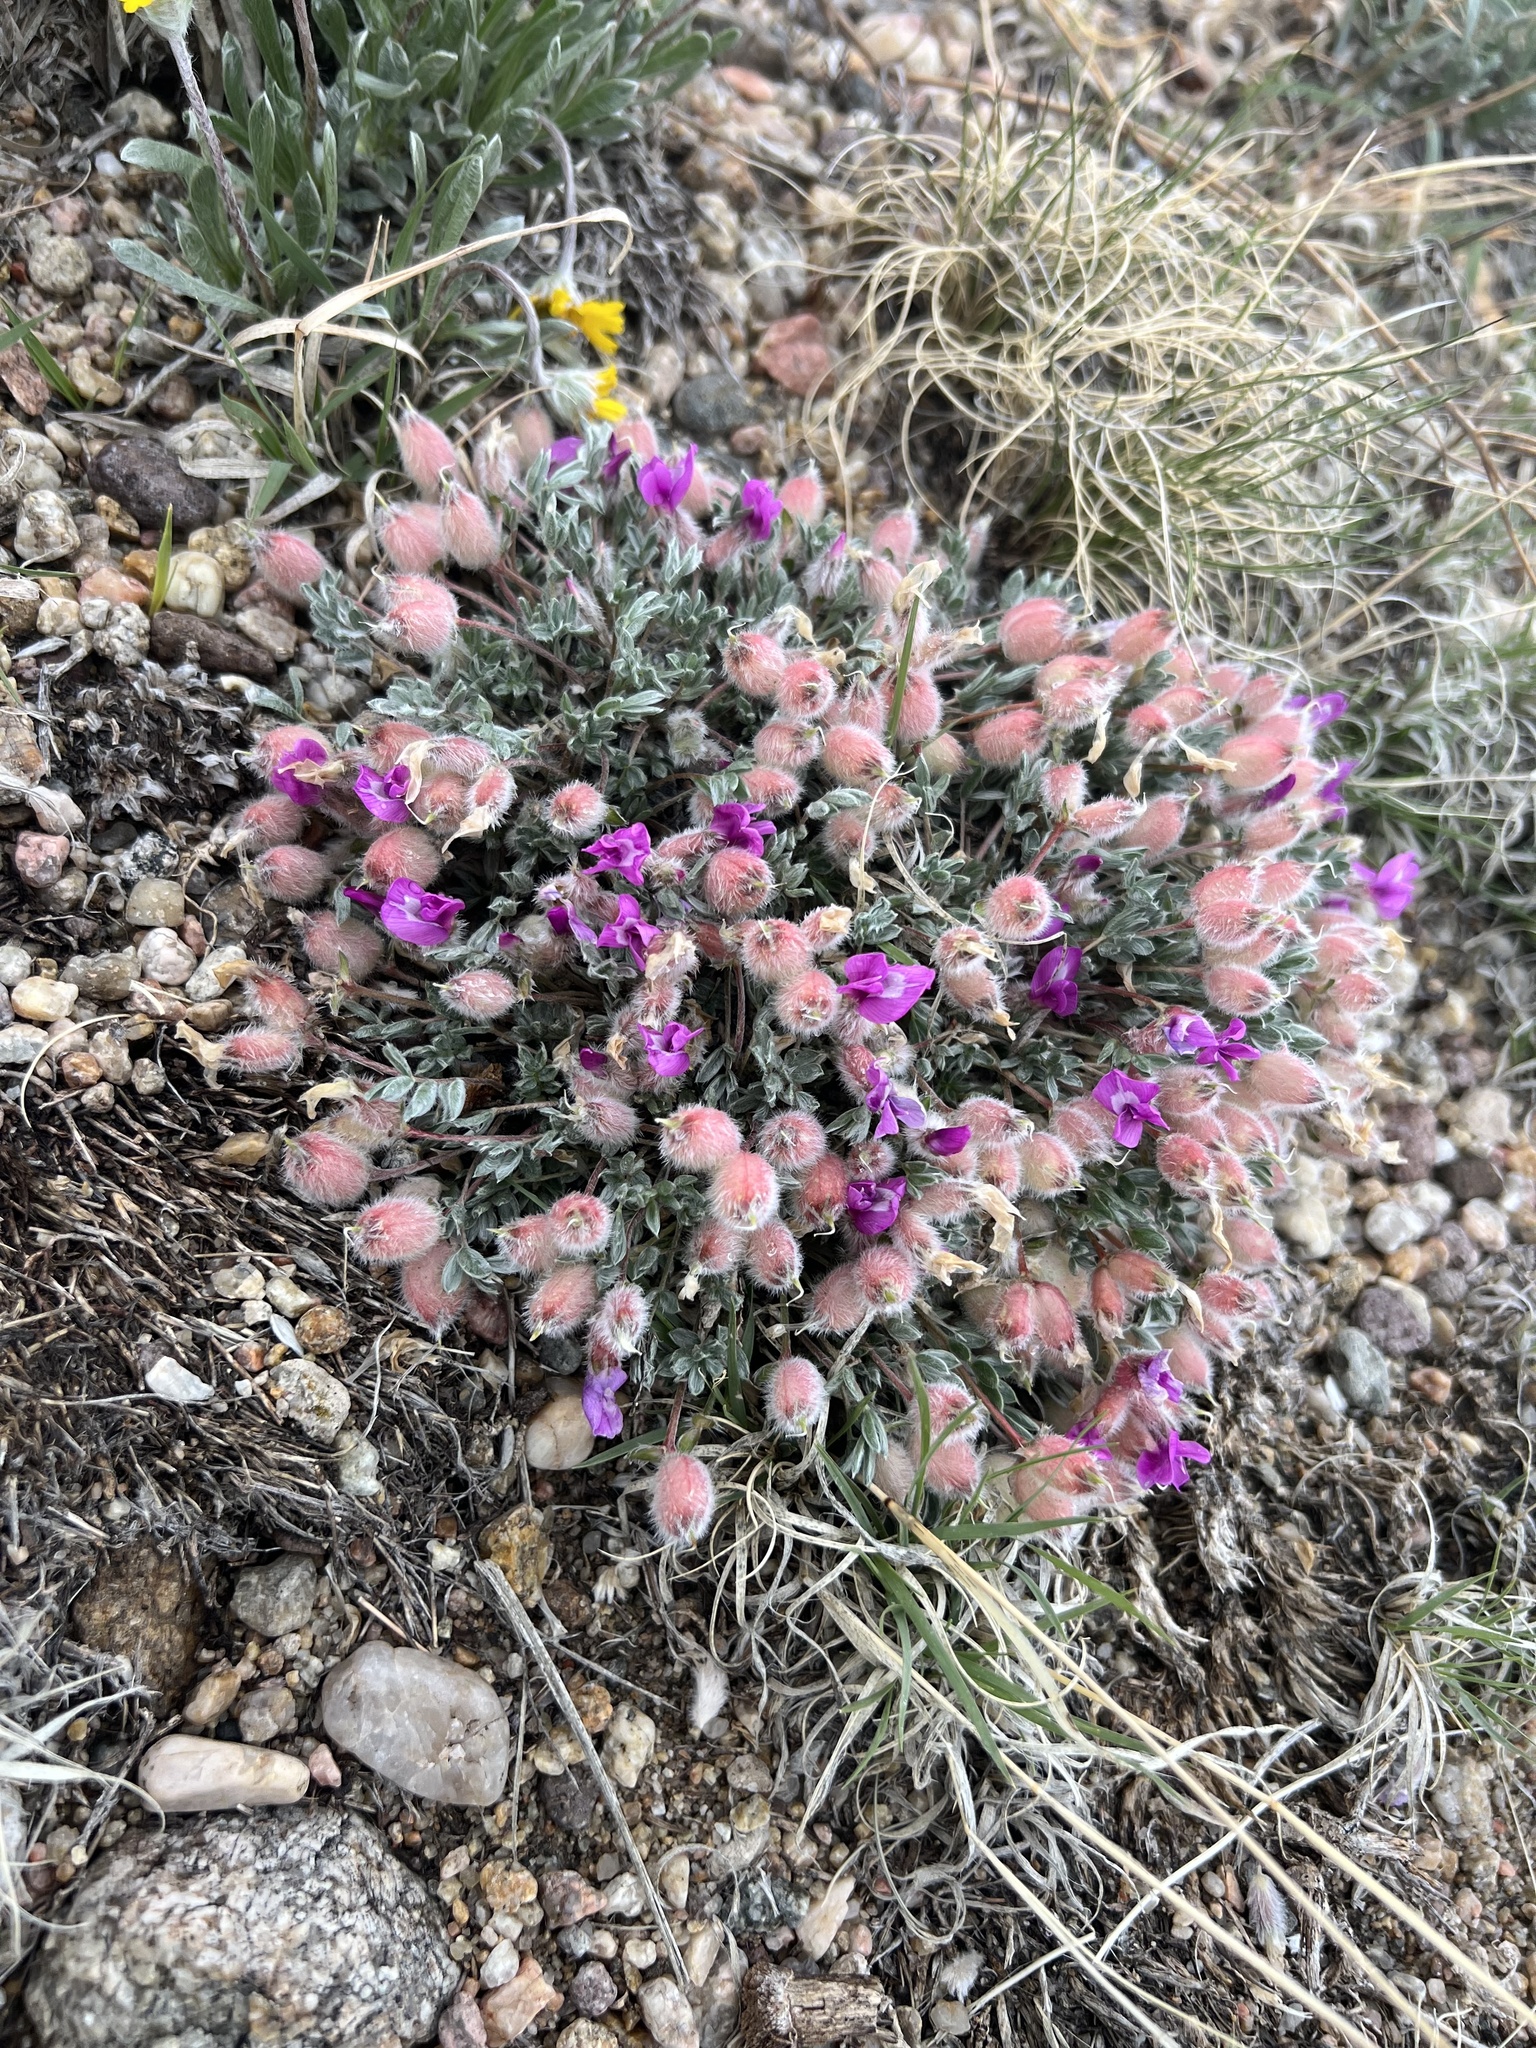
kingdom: Plantae
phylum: Tracheophyta
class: Magnoliopsida
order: Fabales
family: Fabaceae
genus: Oxytropis
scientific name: Oxytropis multiceps
